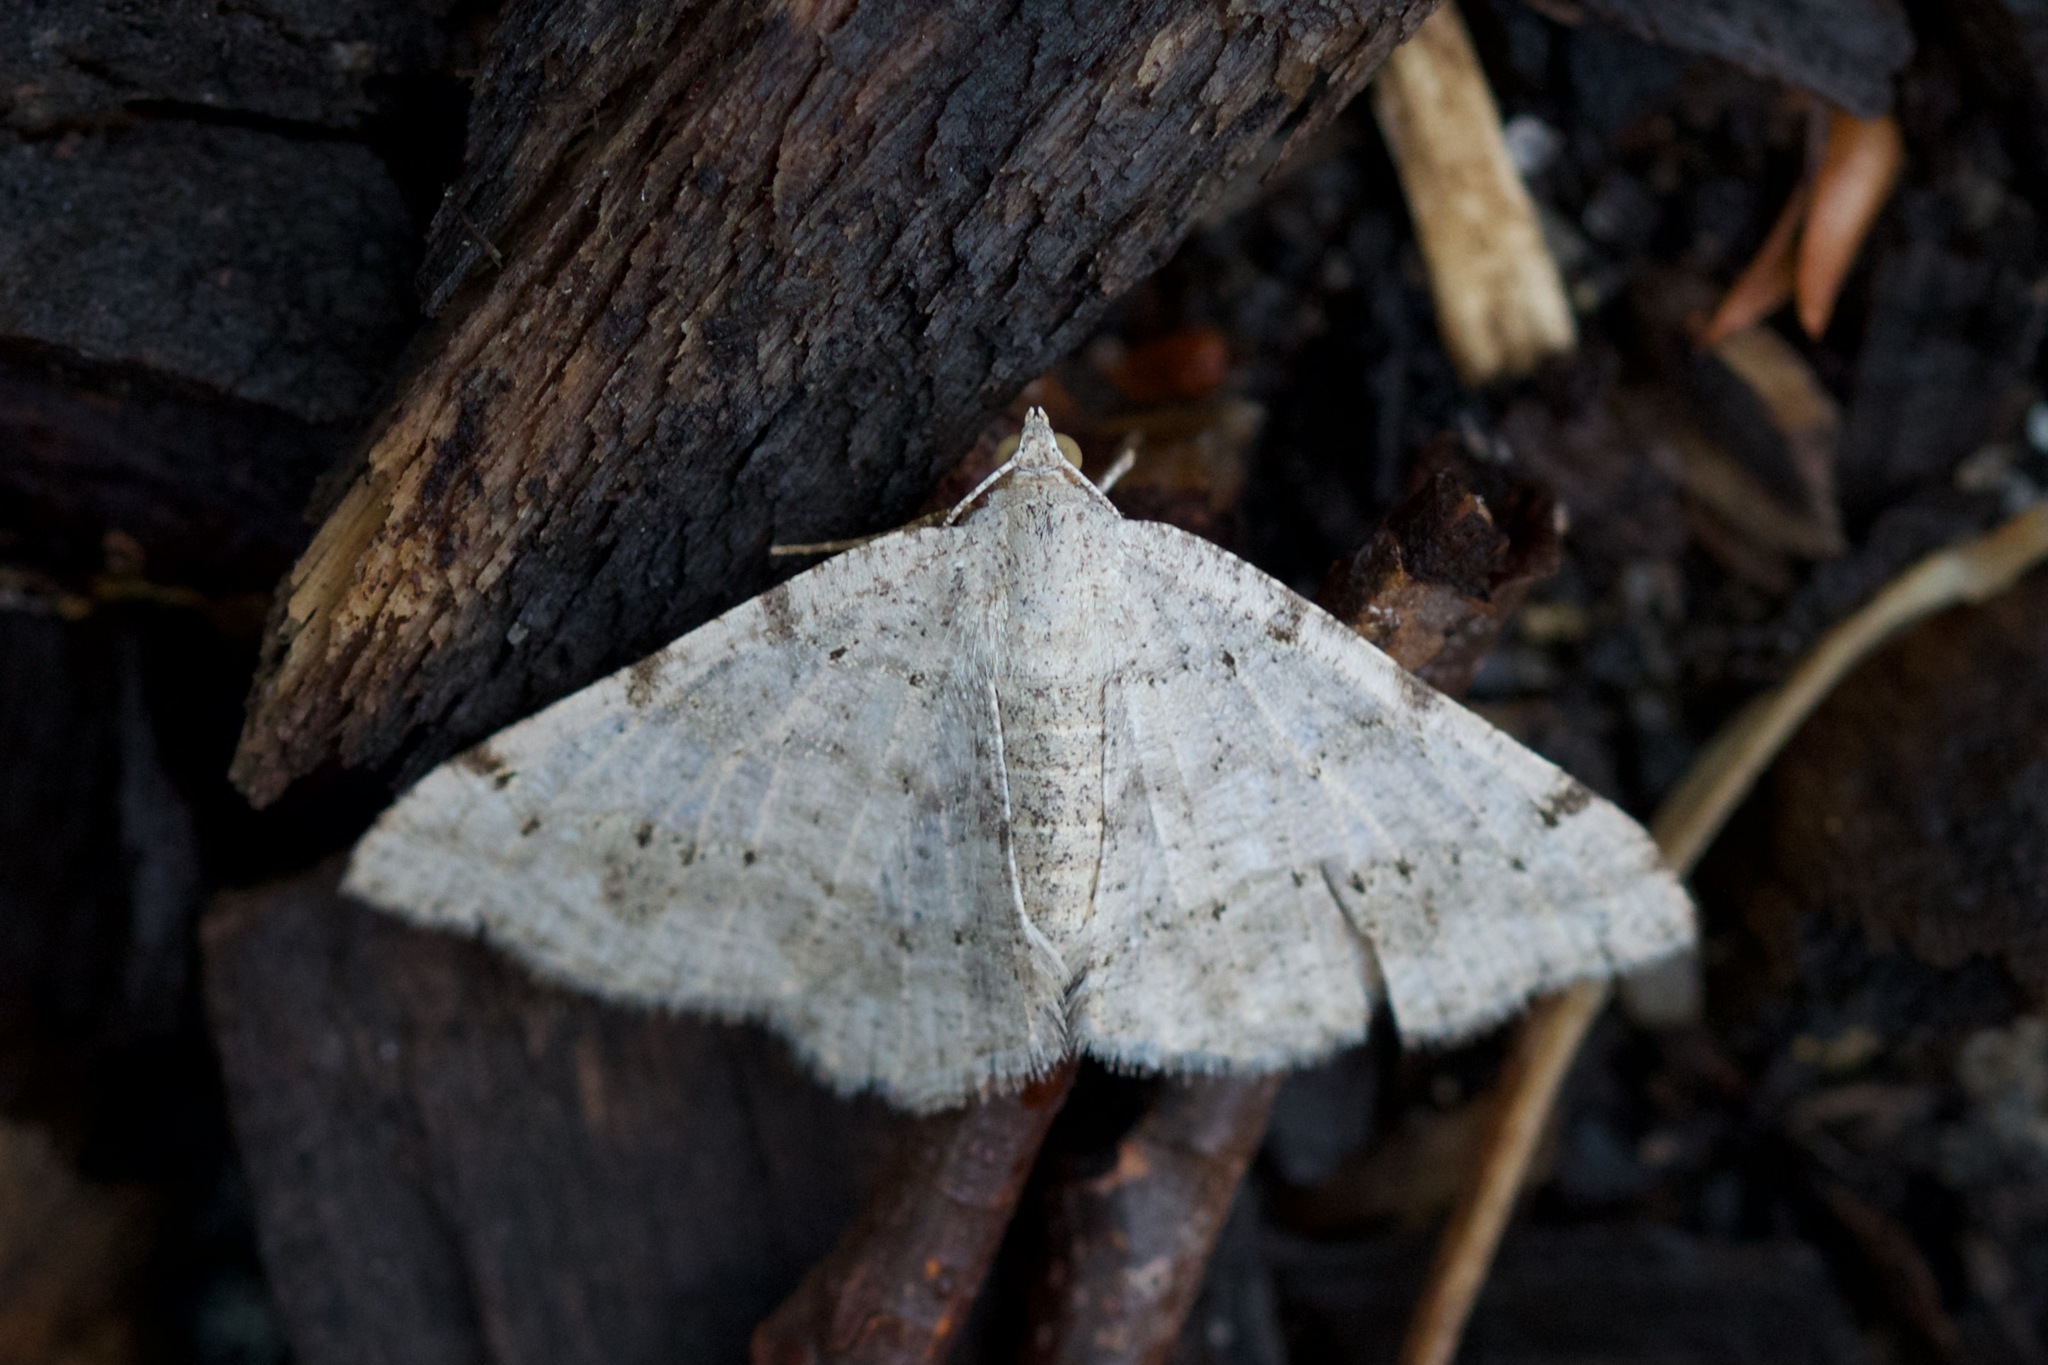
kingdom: Animalia
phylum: Arthropoda
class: Insecta
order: Lepidoptera
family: Geometridae
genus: Digrammia
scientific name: Digrammia ocellinata
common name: Faint-spotted angle
